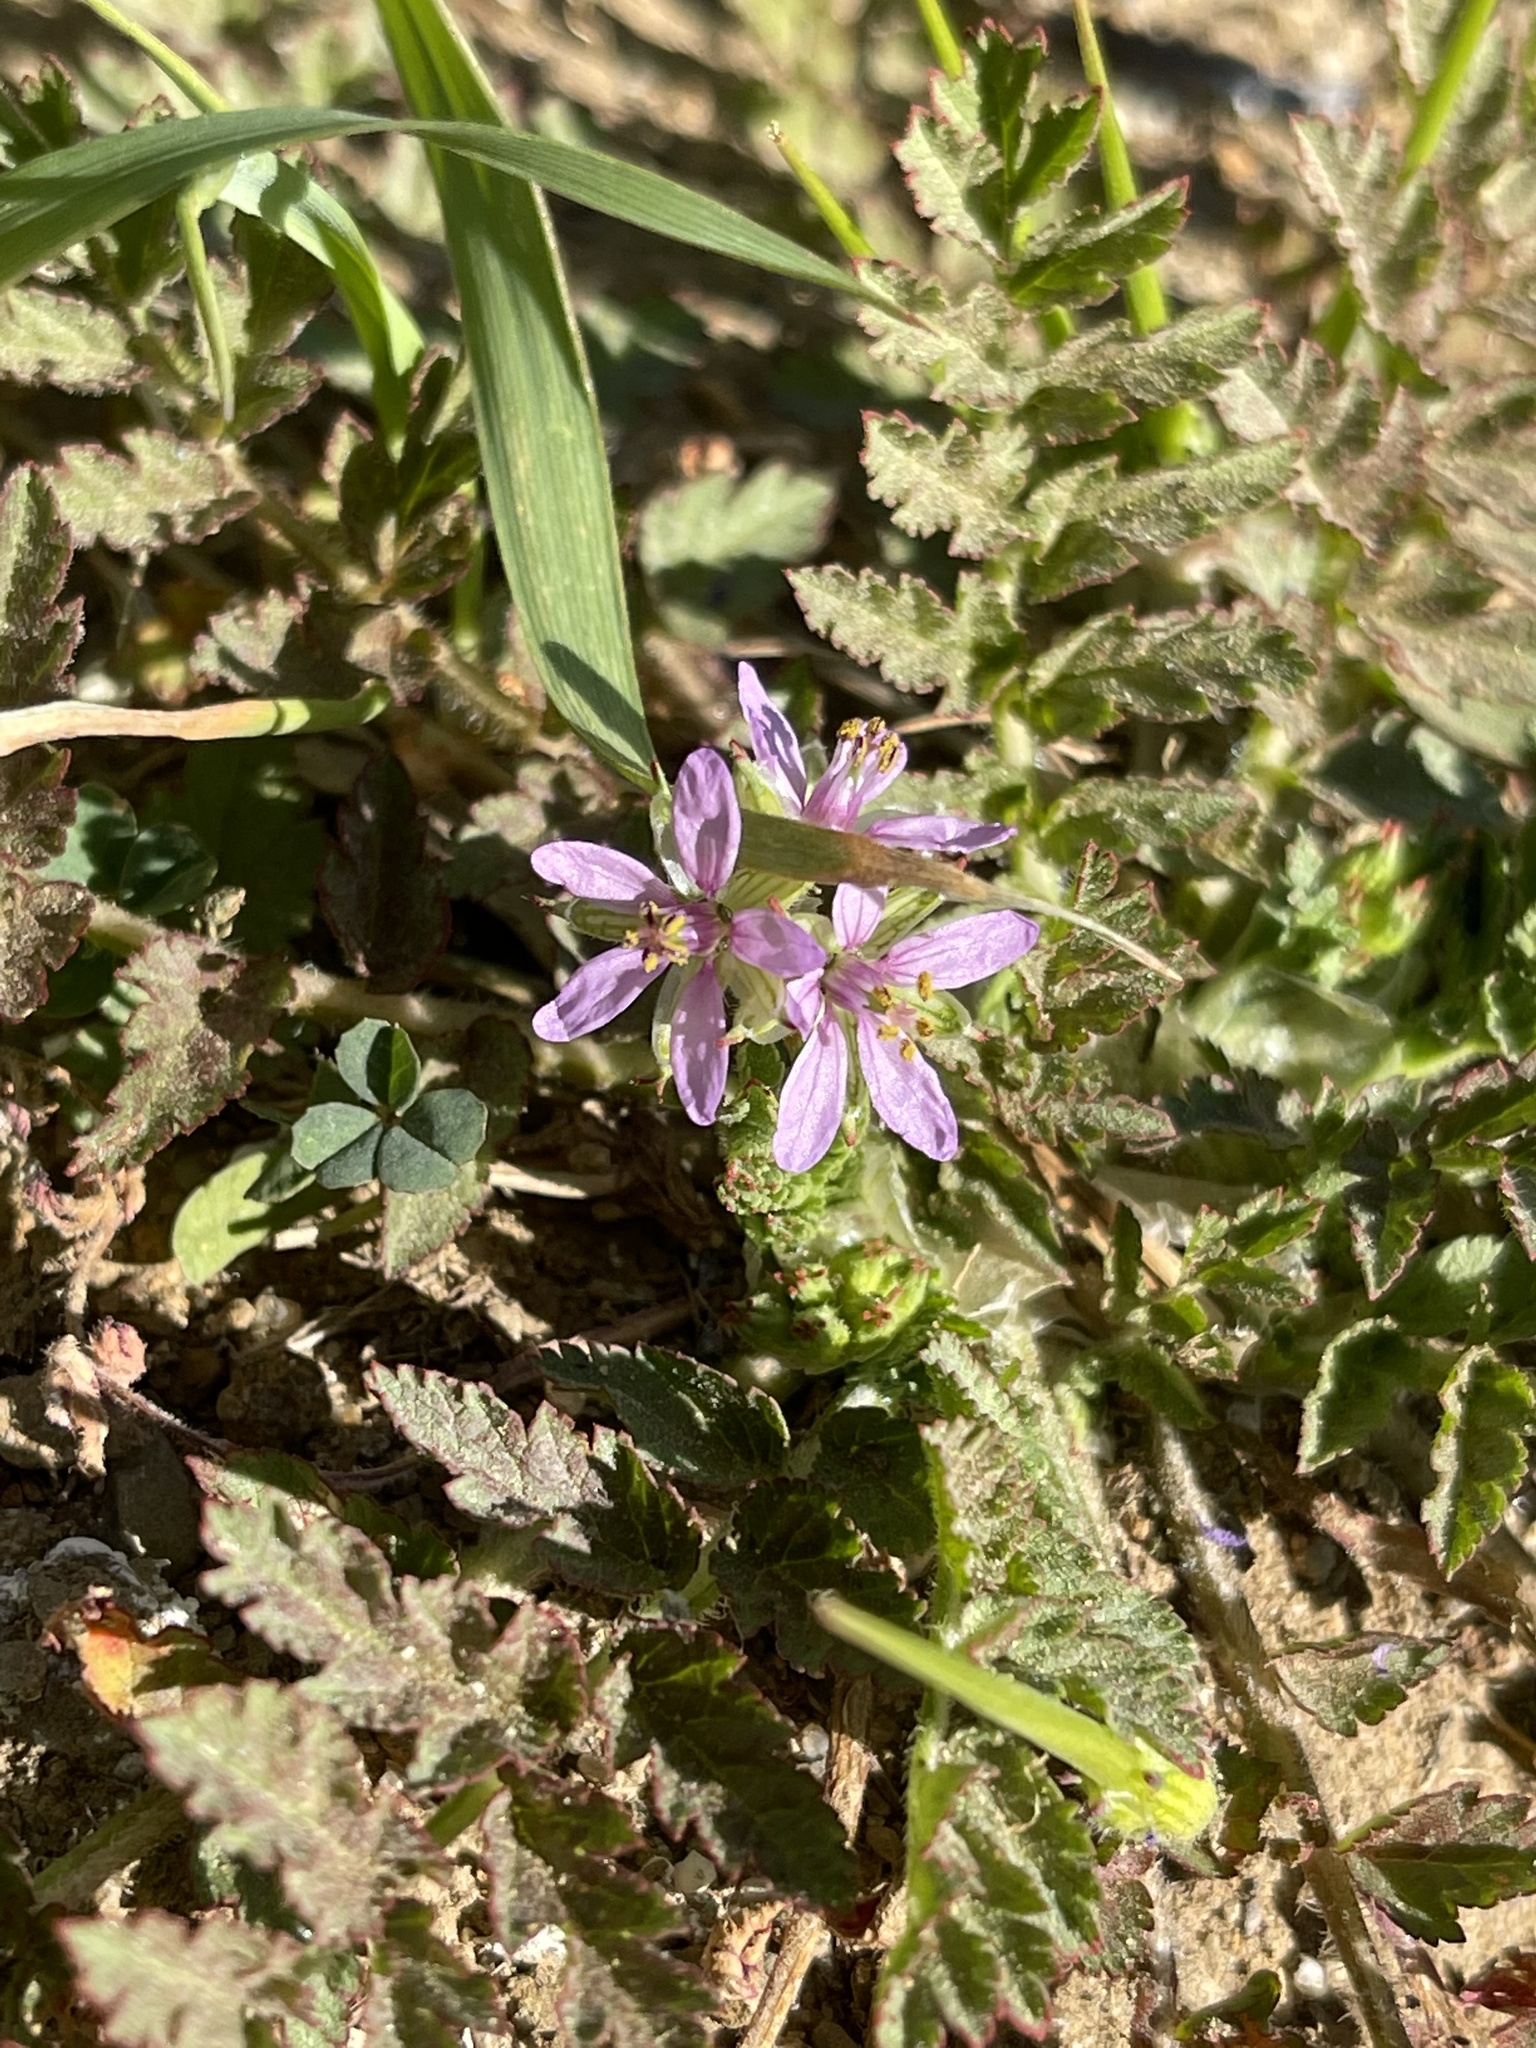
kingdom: Plantae
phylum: Tracheophyta
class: Magnoliopsida
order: Geraniales
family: Geraniaceae
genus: Erodium
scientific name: Erodium moschatum
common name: Musk stork's-bill
